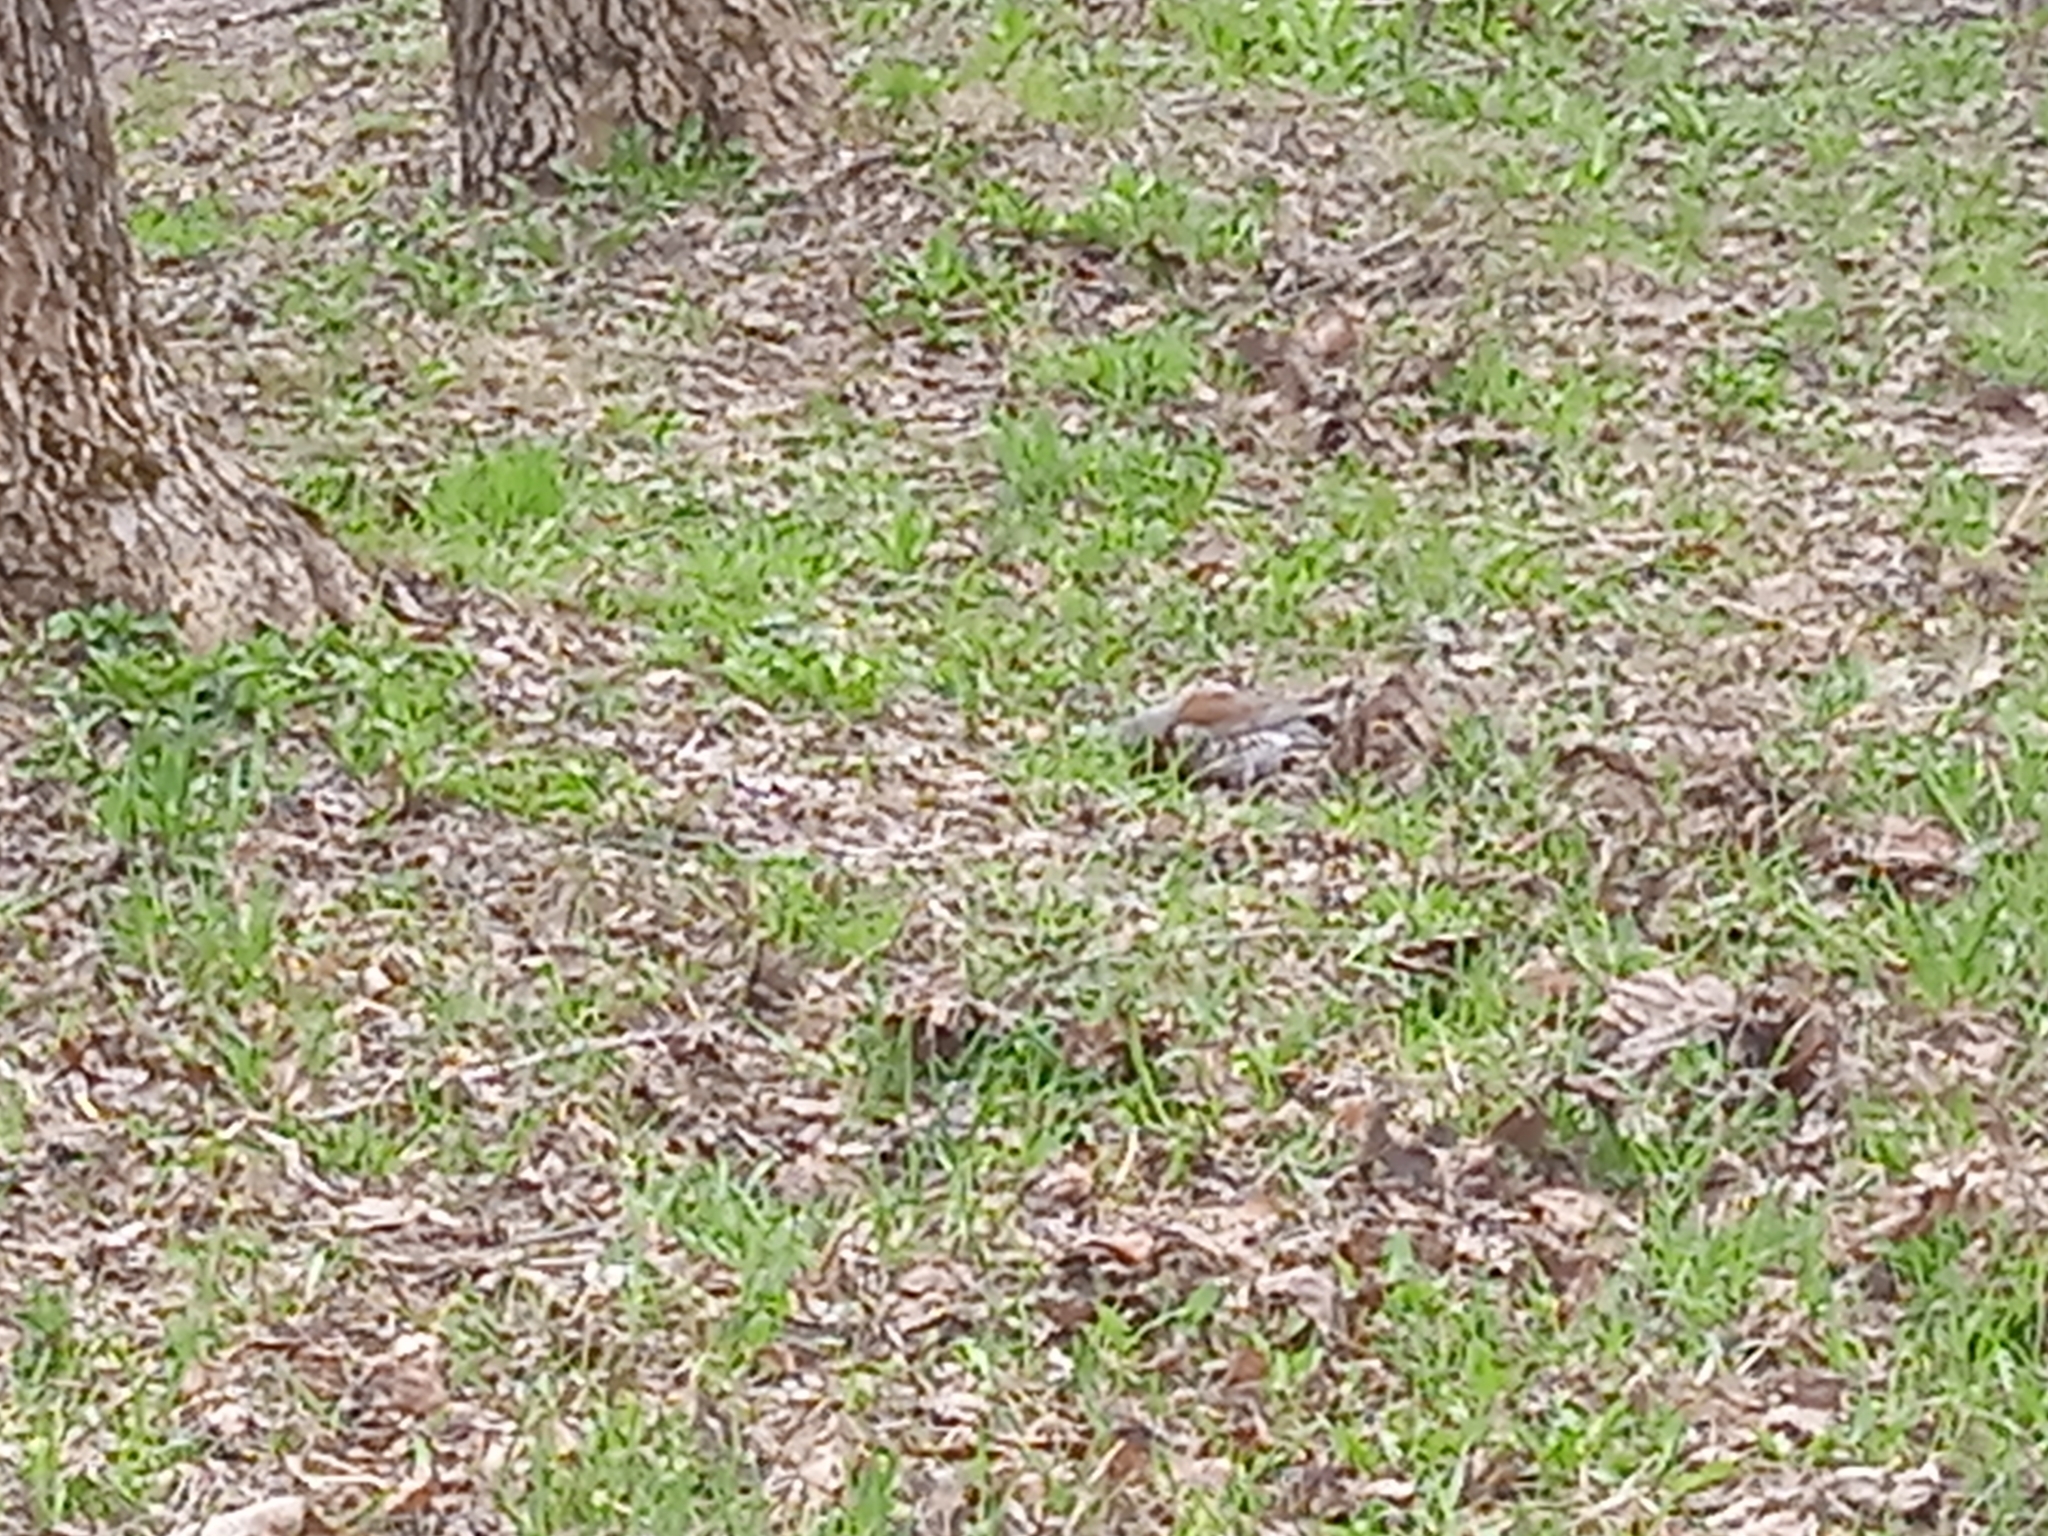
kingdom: Animalia
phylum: Chordata
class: Aves
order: Passeriformes
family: Turdidae
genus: Turdus
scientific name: Turdus pilaris
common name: Fieldfare
